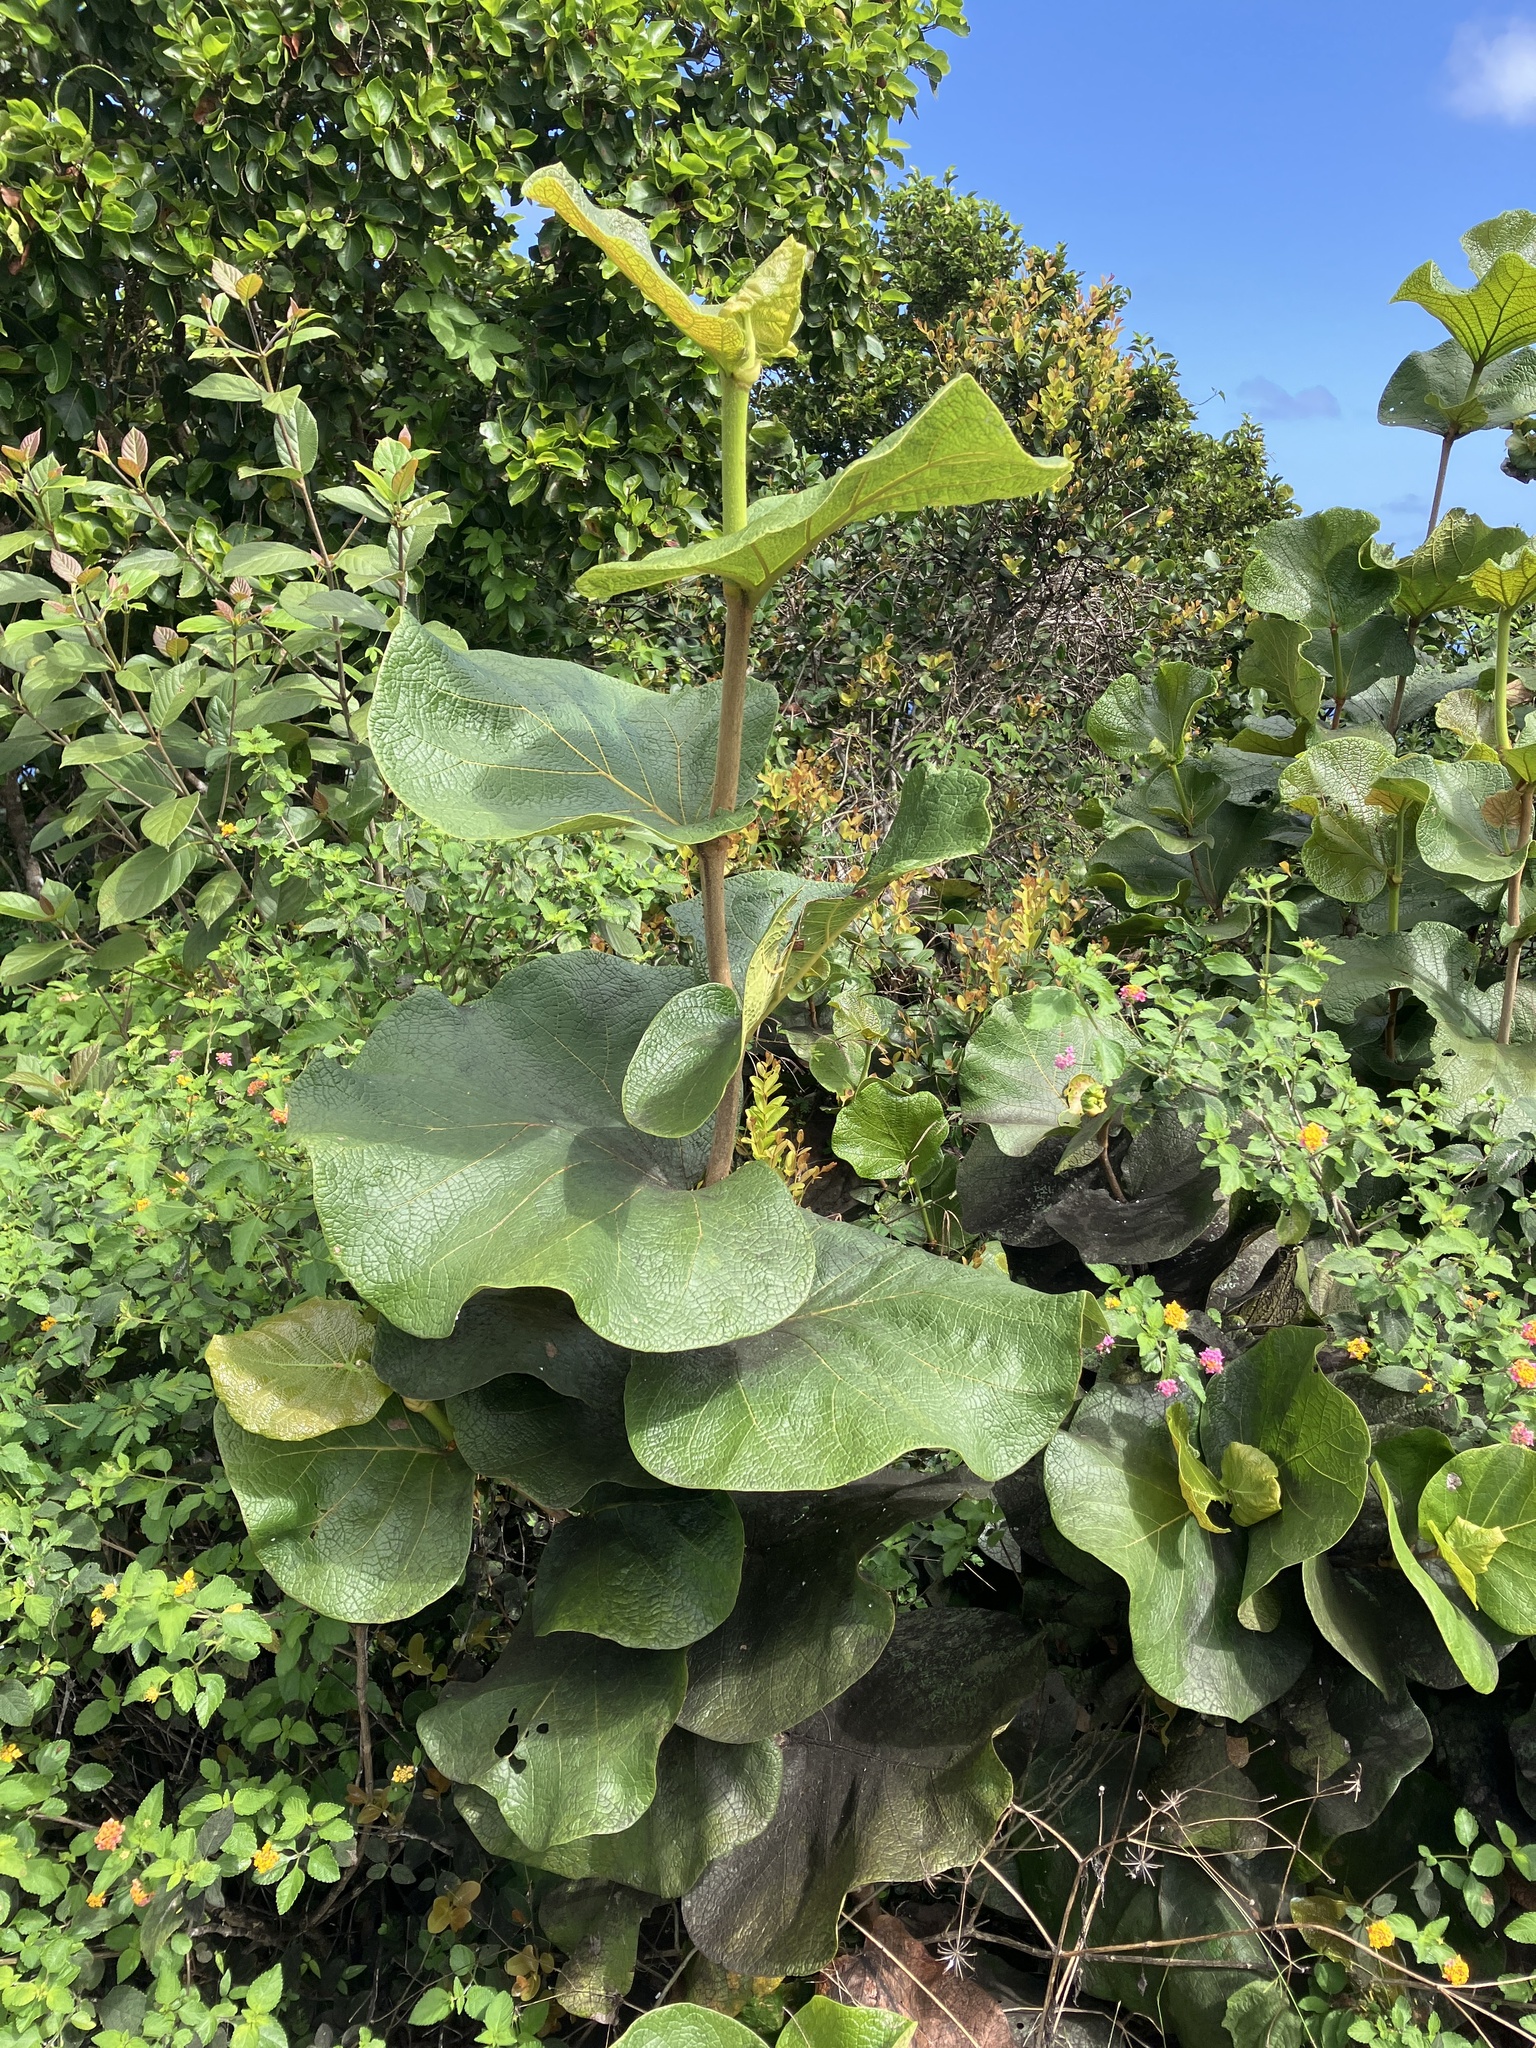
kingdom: Plantae
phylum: Tracheophyta
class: Magnoliopsida
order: Caryophyllales
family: Polygonaceae
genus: Coccoloba
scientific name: Coccoloba pubescens
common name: Mountain-grape
